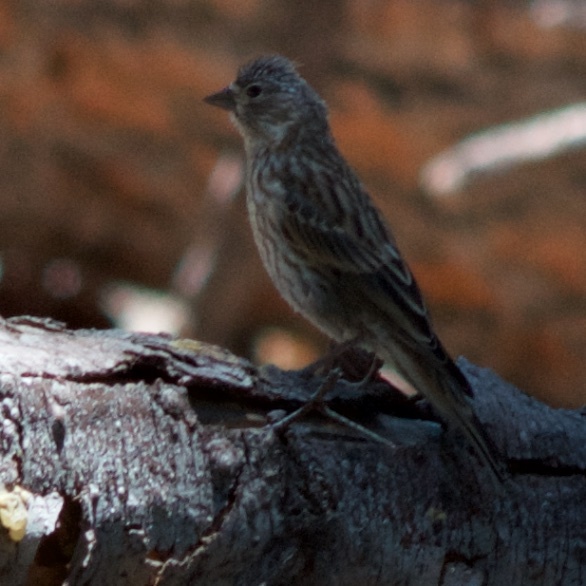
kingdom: Animalia
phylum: Chordata
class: Aves
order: Passeriformes
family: Fringillidae
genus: Haemorhous
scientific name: Haemorhous cassinii
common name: Cassin's finch
